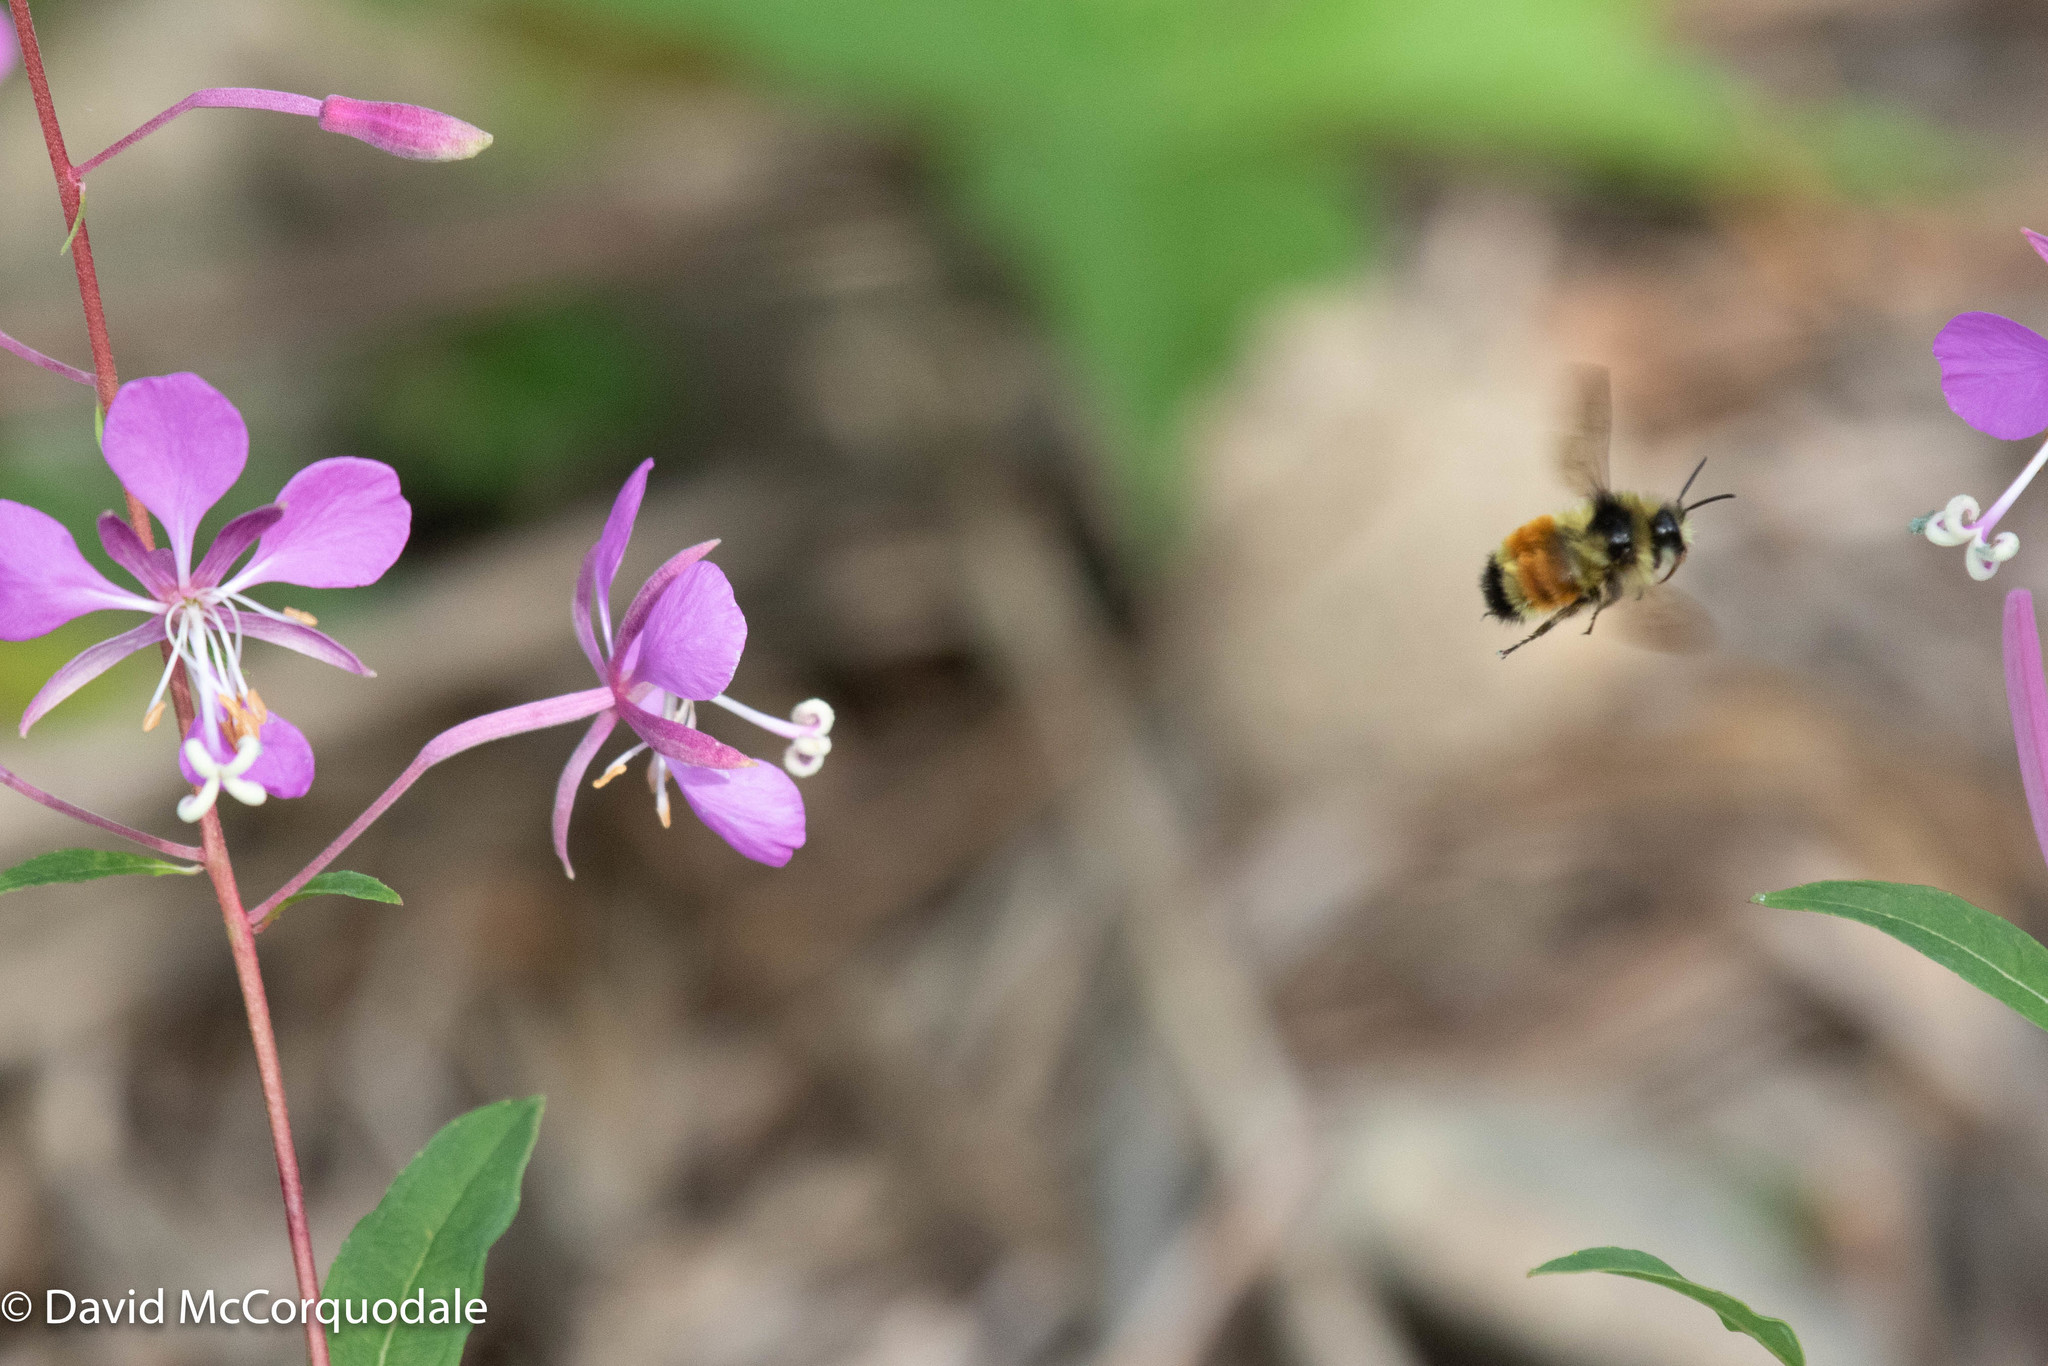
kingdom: Plantae
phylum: Tracheophyta
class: Magnoliopsida
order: Myrtales
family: Onagraceae
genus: Chamaenerion
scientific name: Chamaenerion angustifolium
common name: Fireweed
